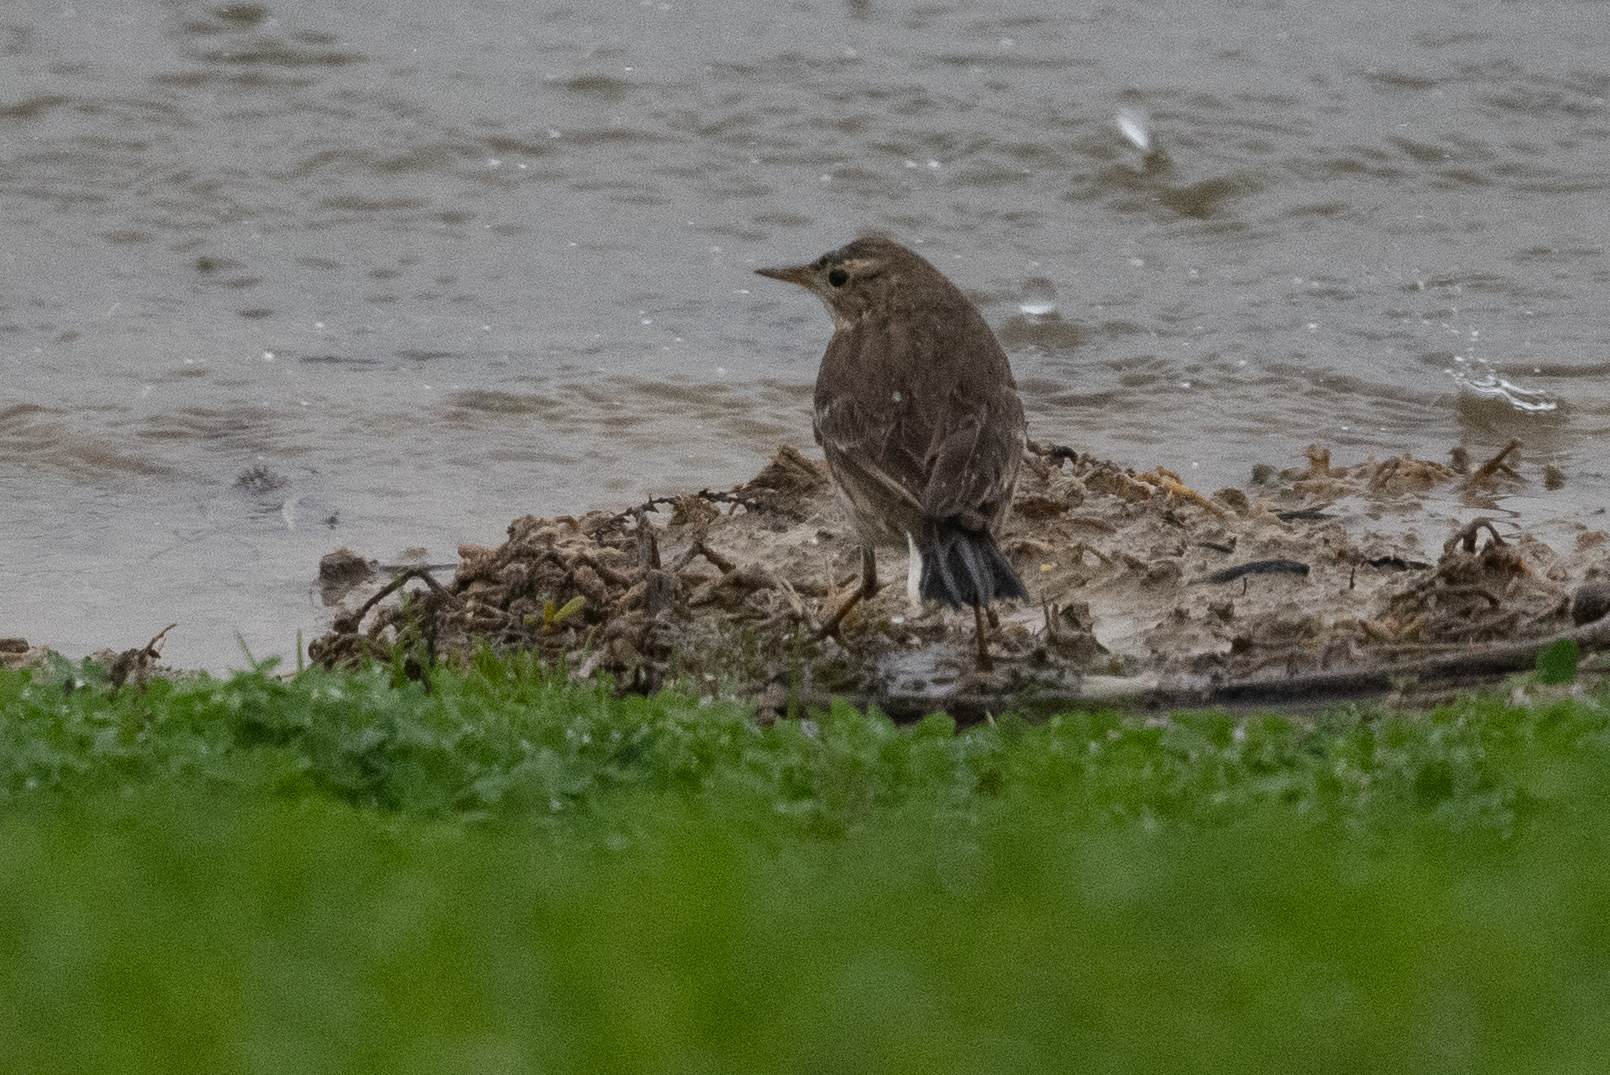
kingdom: Animalia
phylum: Chordata
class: Aves
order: Passeriformes
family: Motacillidae
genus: Anthus
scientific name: Anthus rubescens
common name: Buff-bellied pipit
